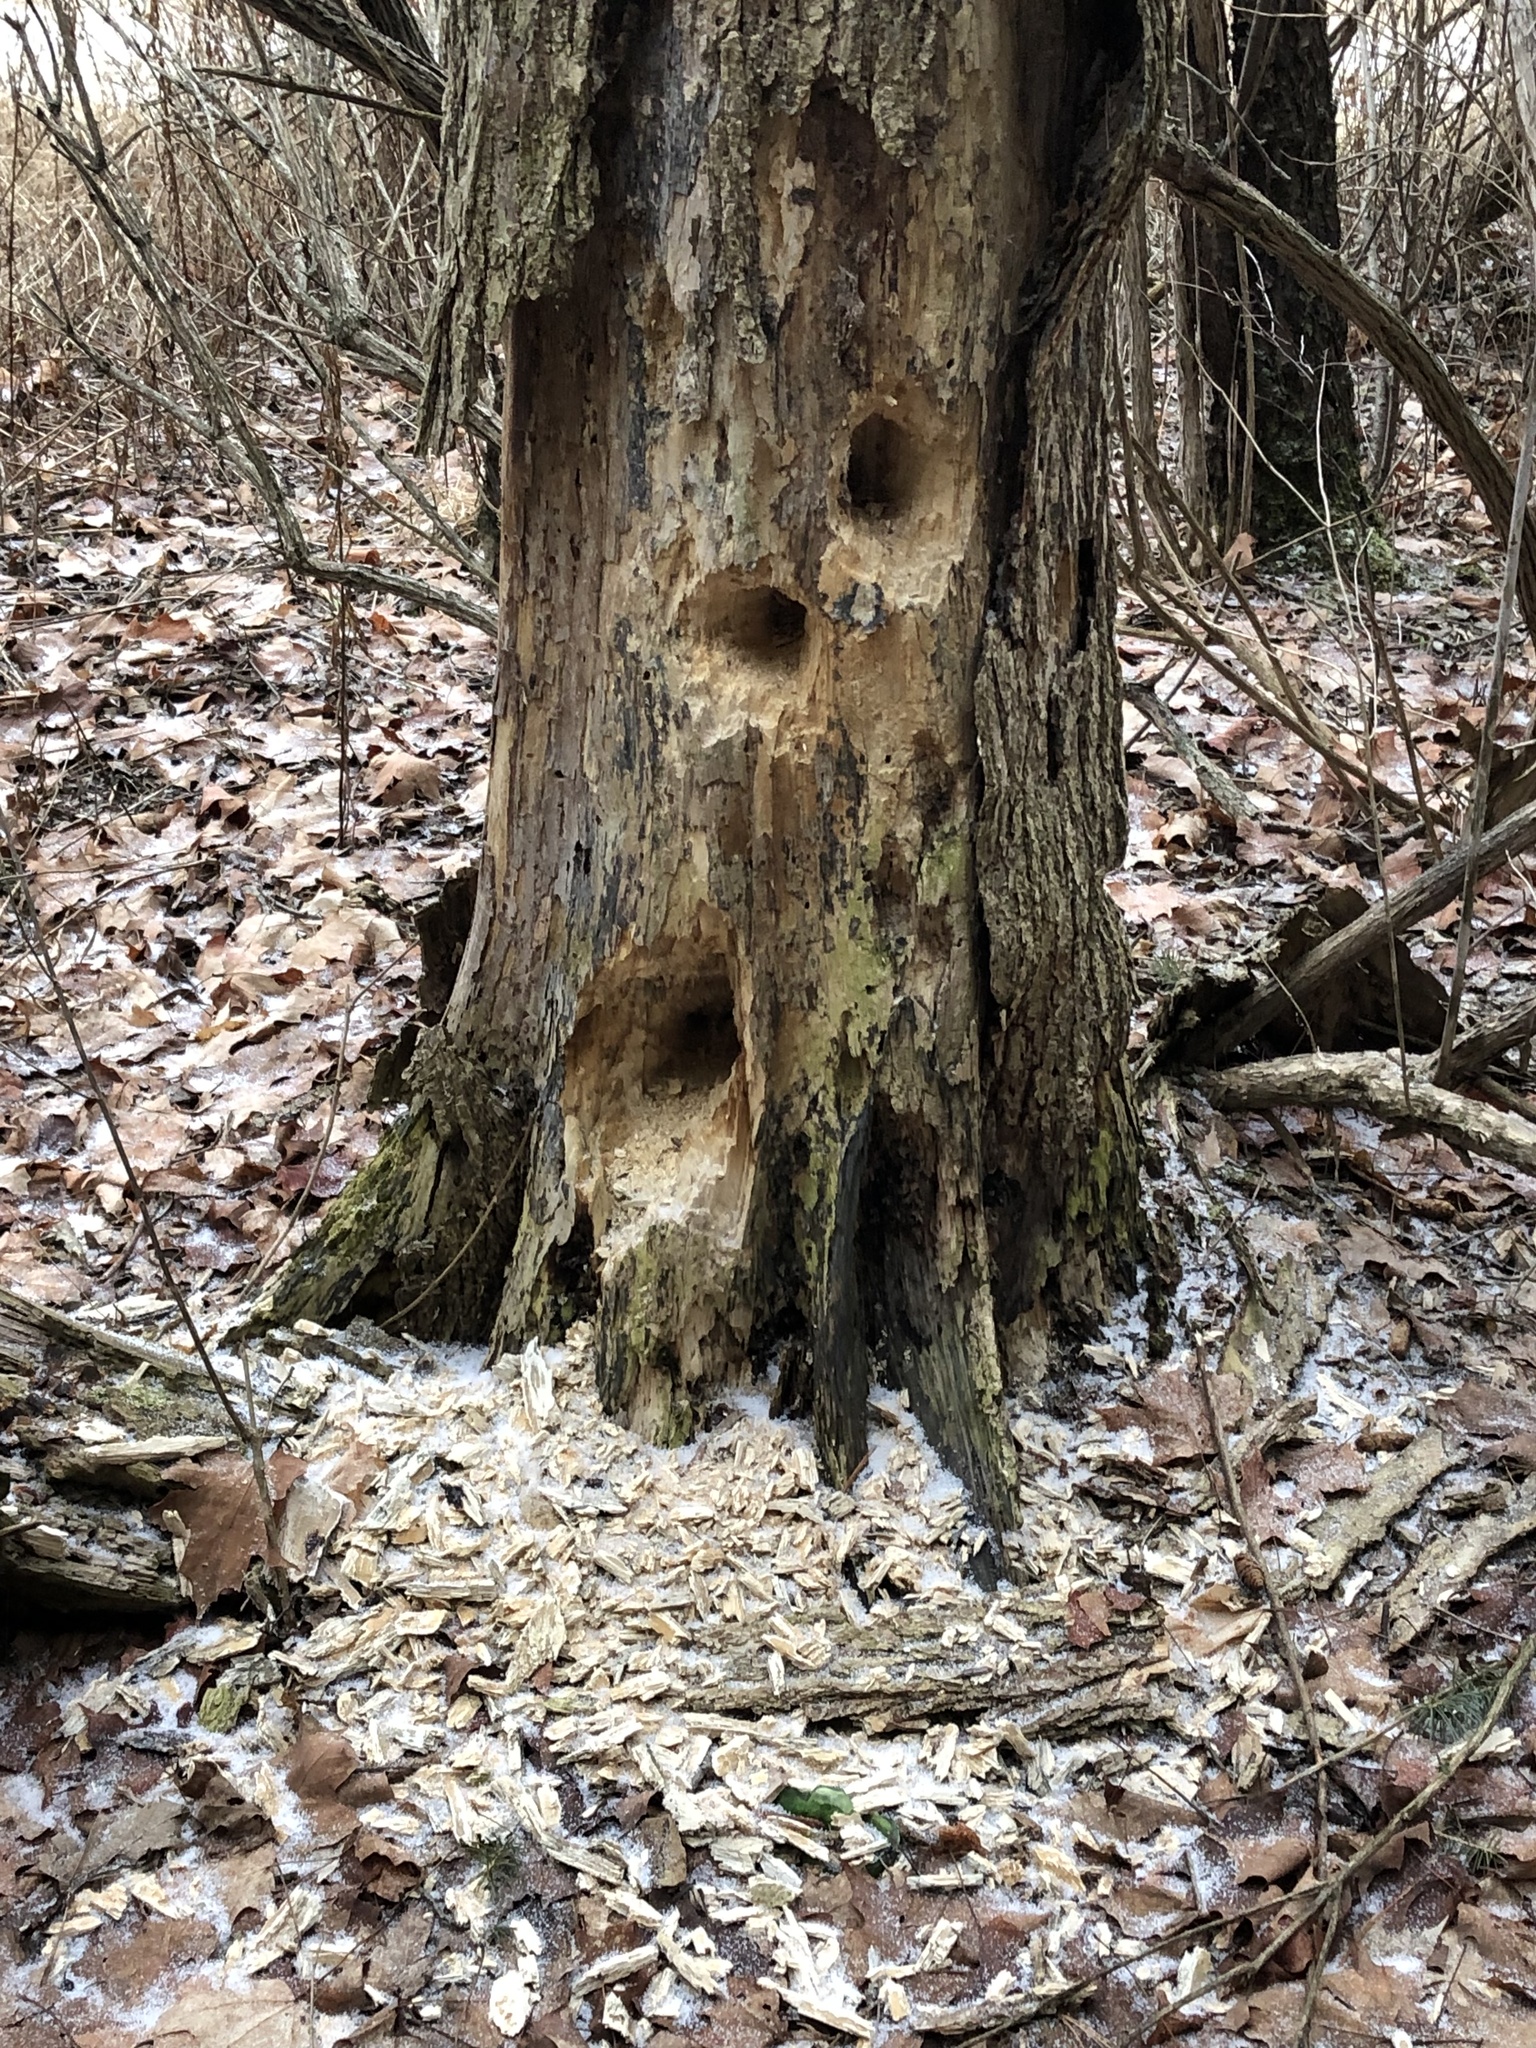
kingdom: Animalia
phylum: Chordata
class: Aves
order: Piciformes
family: Picidae
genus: Dryocopus
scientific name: Dryocopus pileatus
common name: Pileated woodpecker
